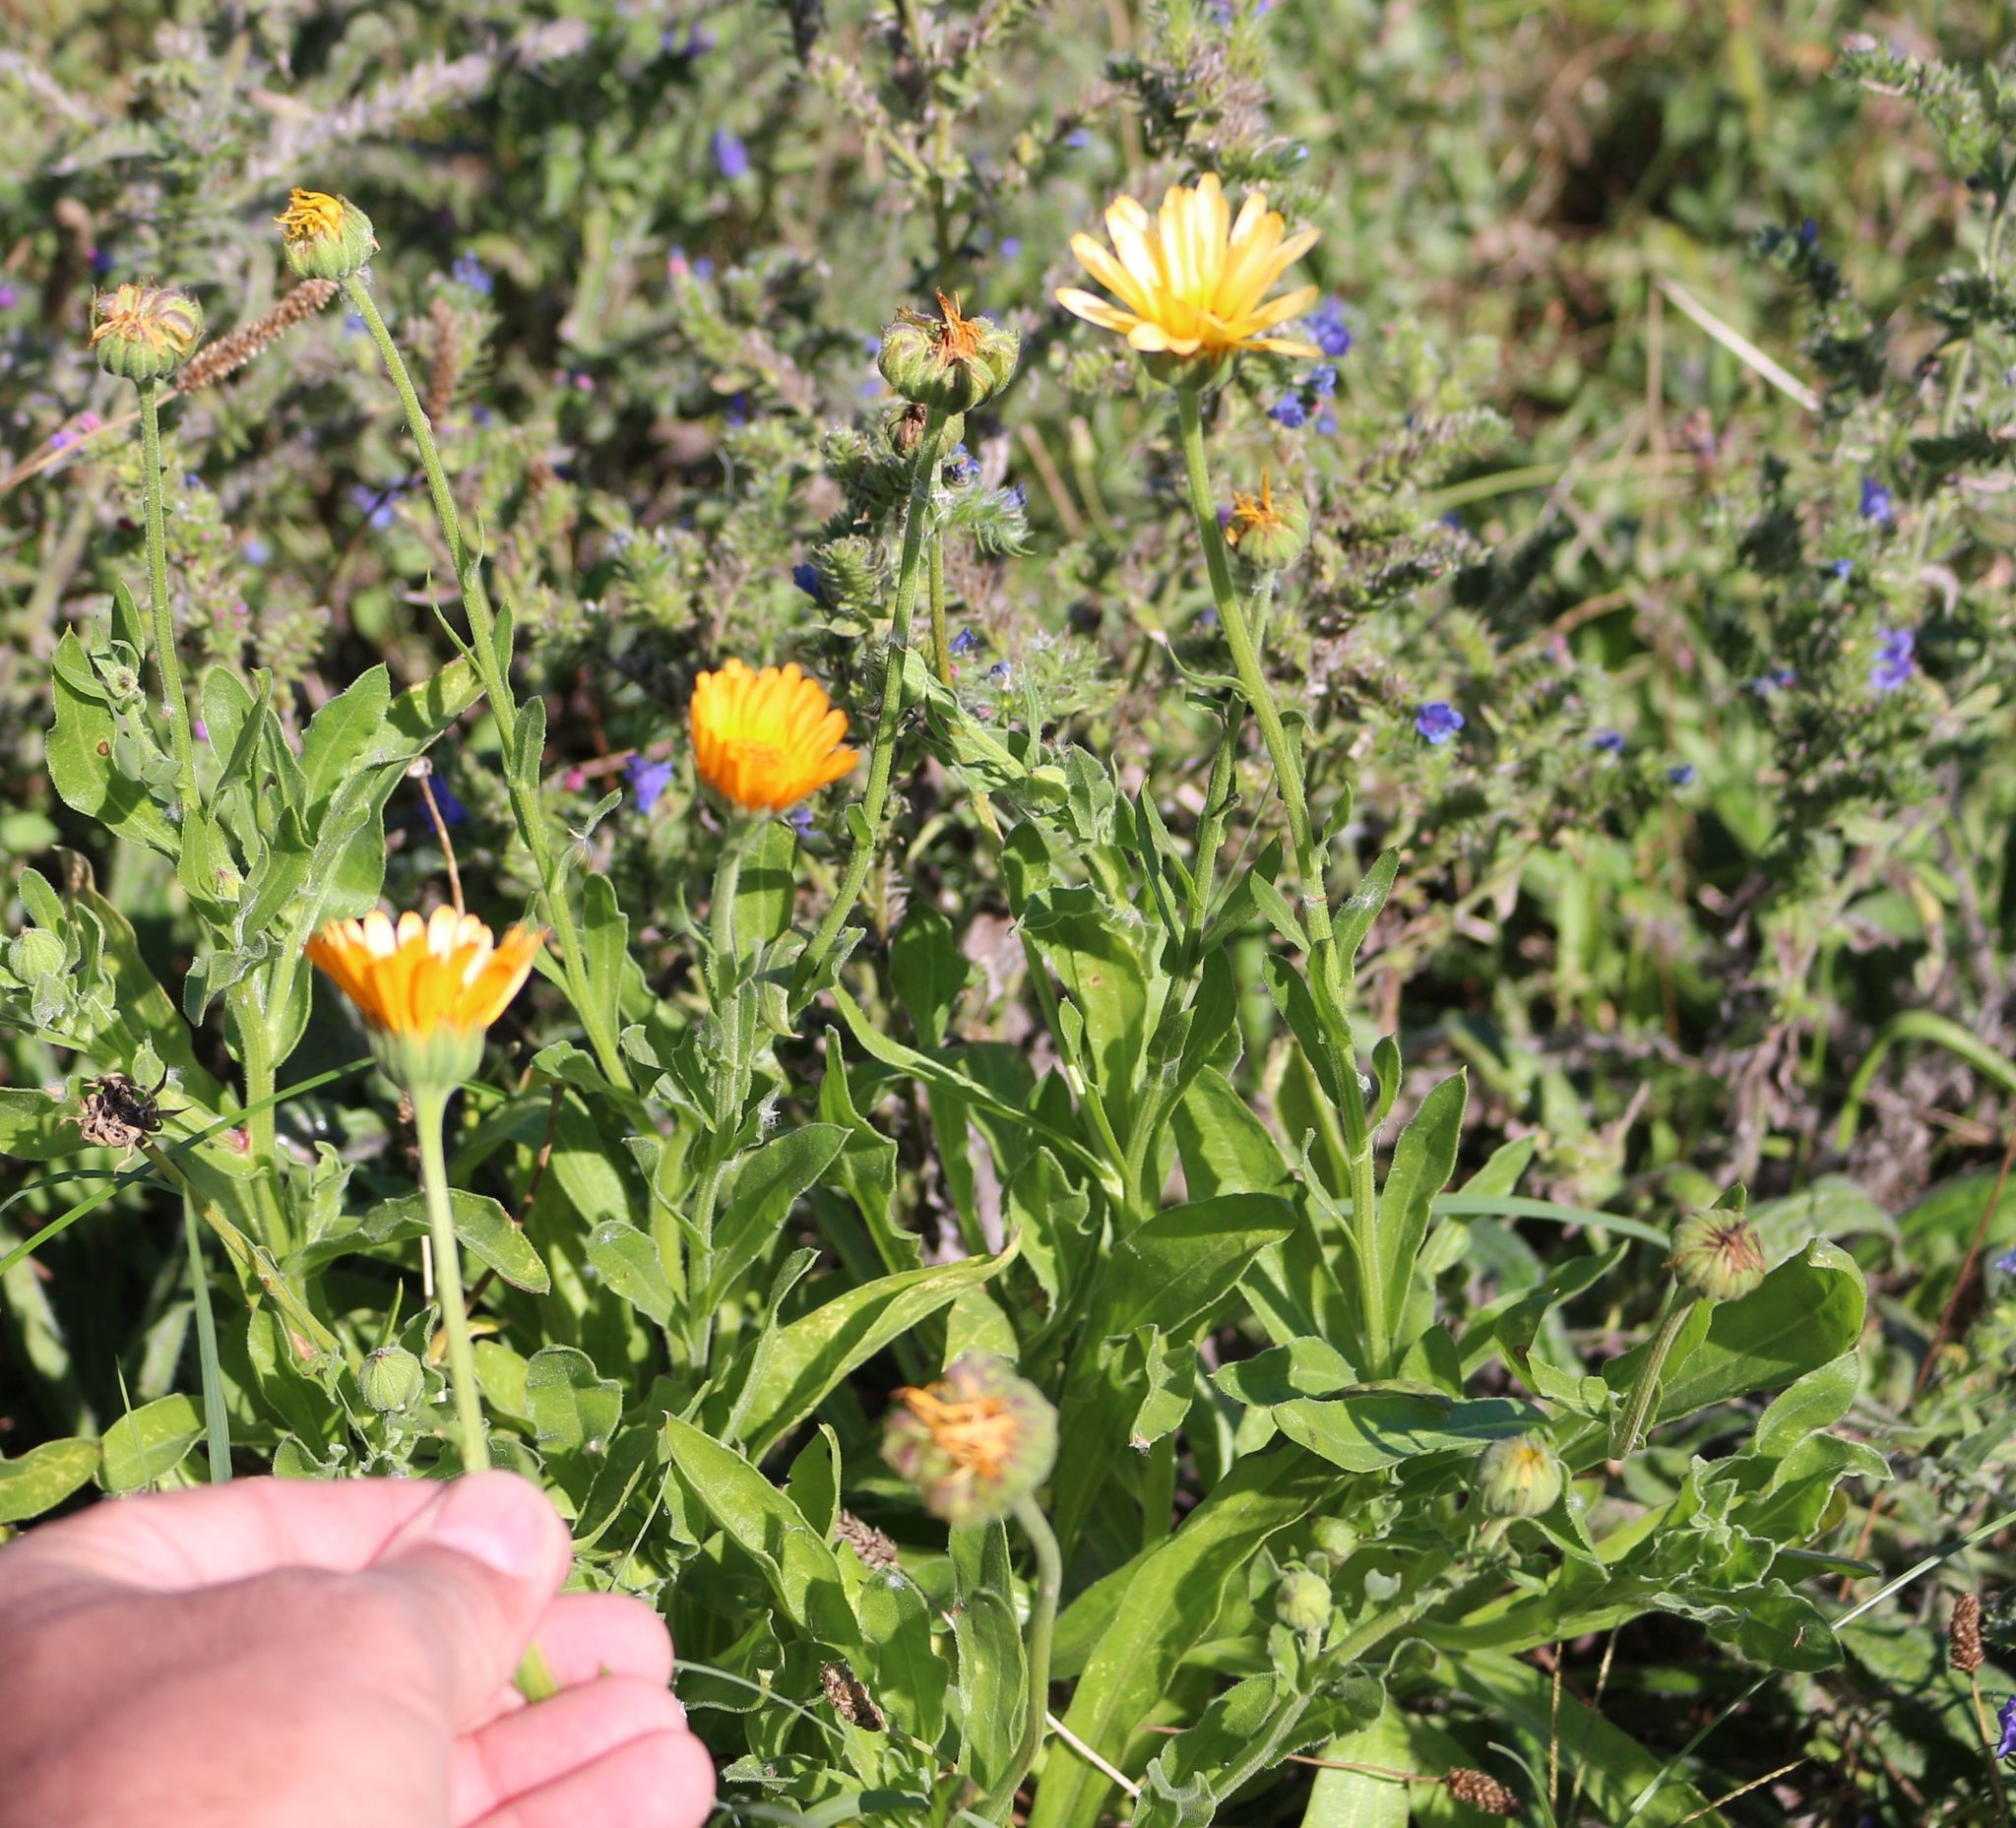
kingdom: Plantae
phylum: Tracheophyta
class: Magnoliopsida
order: Asterales
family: Asteraceae
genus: Calendula
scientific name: Calendula officinalis
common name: Pot marigold
